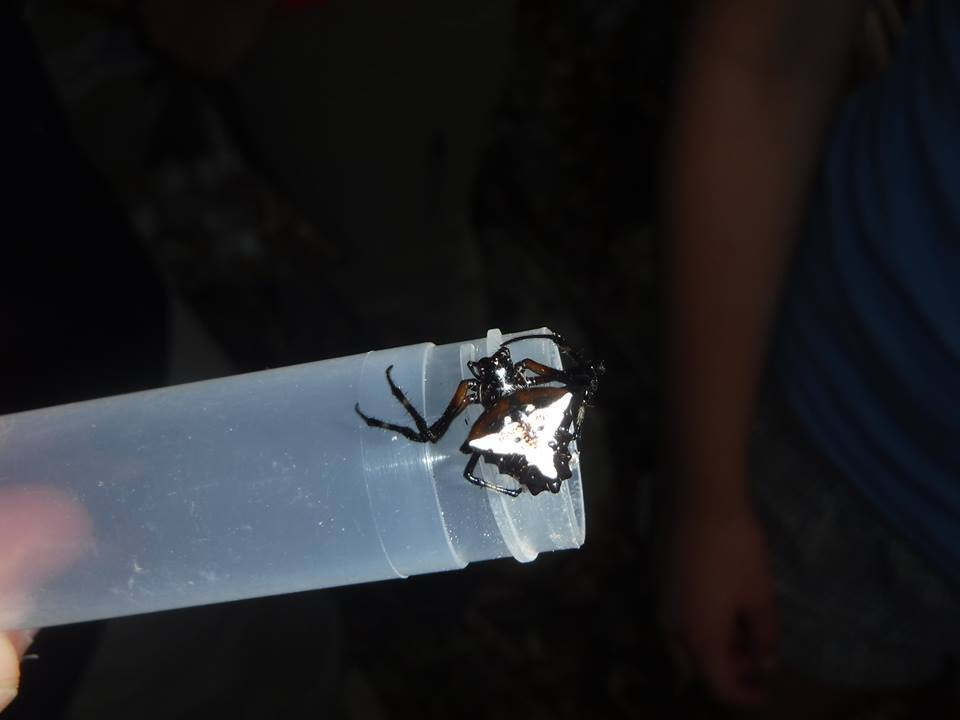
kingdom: Animalia
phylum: Arthropoda
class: Arachnida
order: Araneae
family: Araneidae
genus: Verrucosa
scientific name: Verrucosa arenata
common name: Orb weavers
